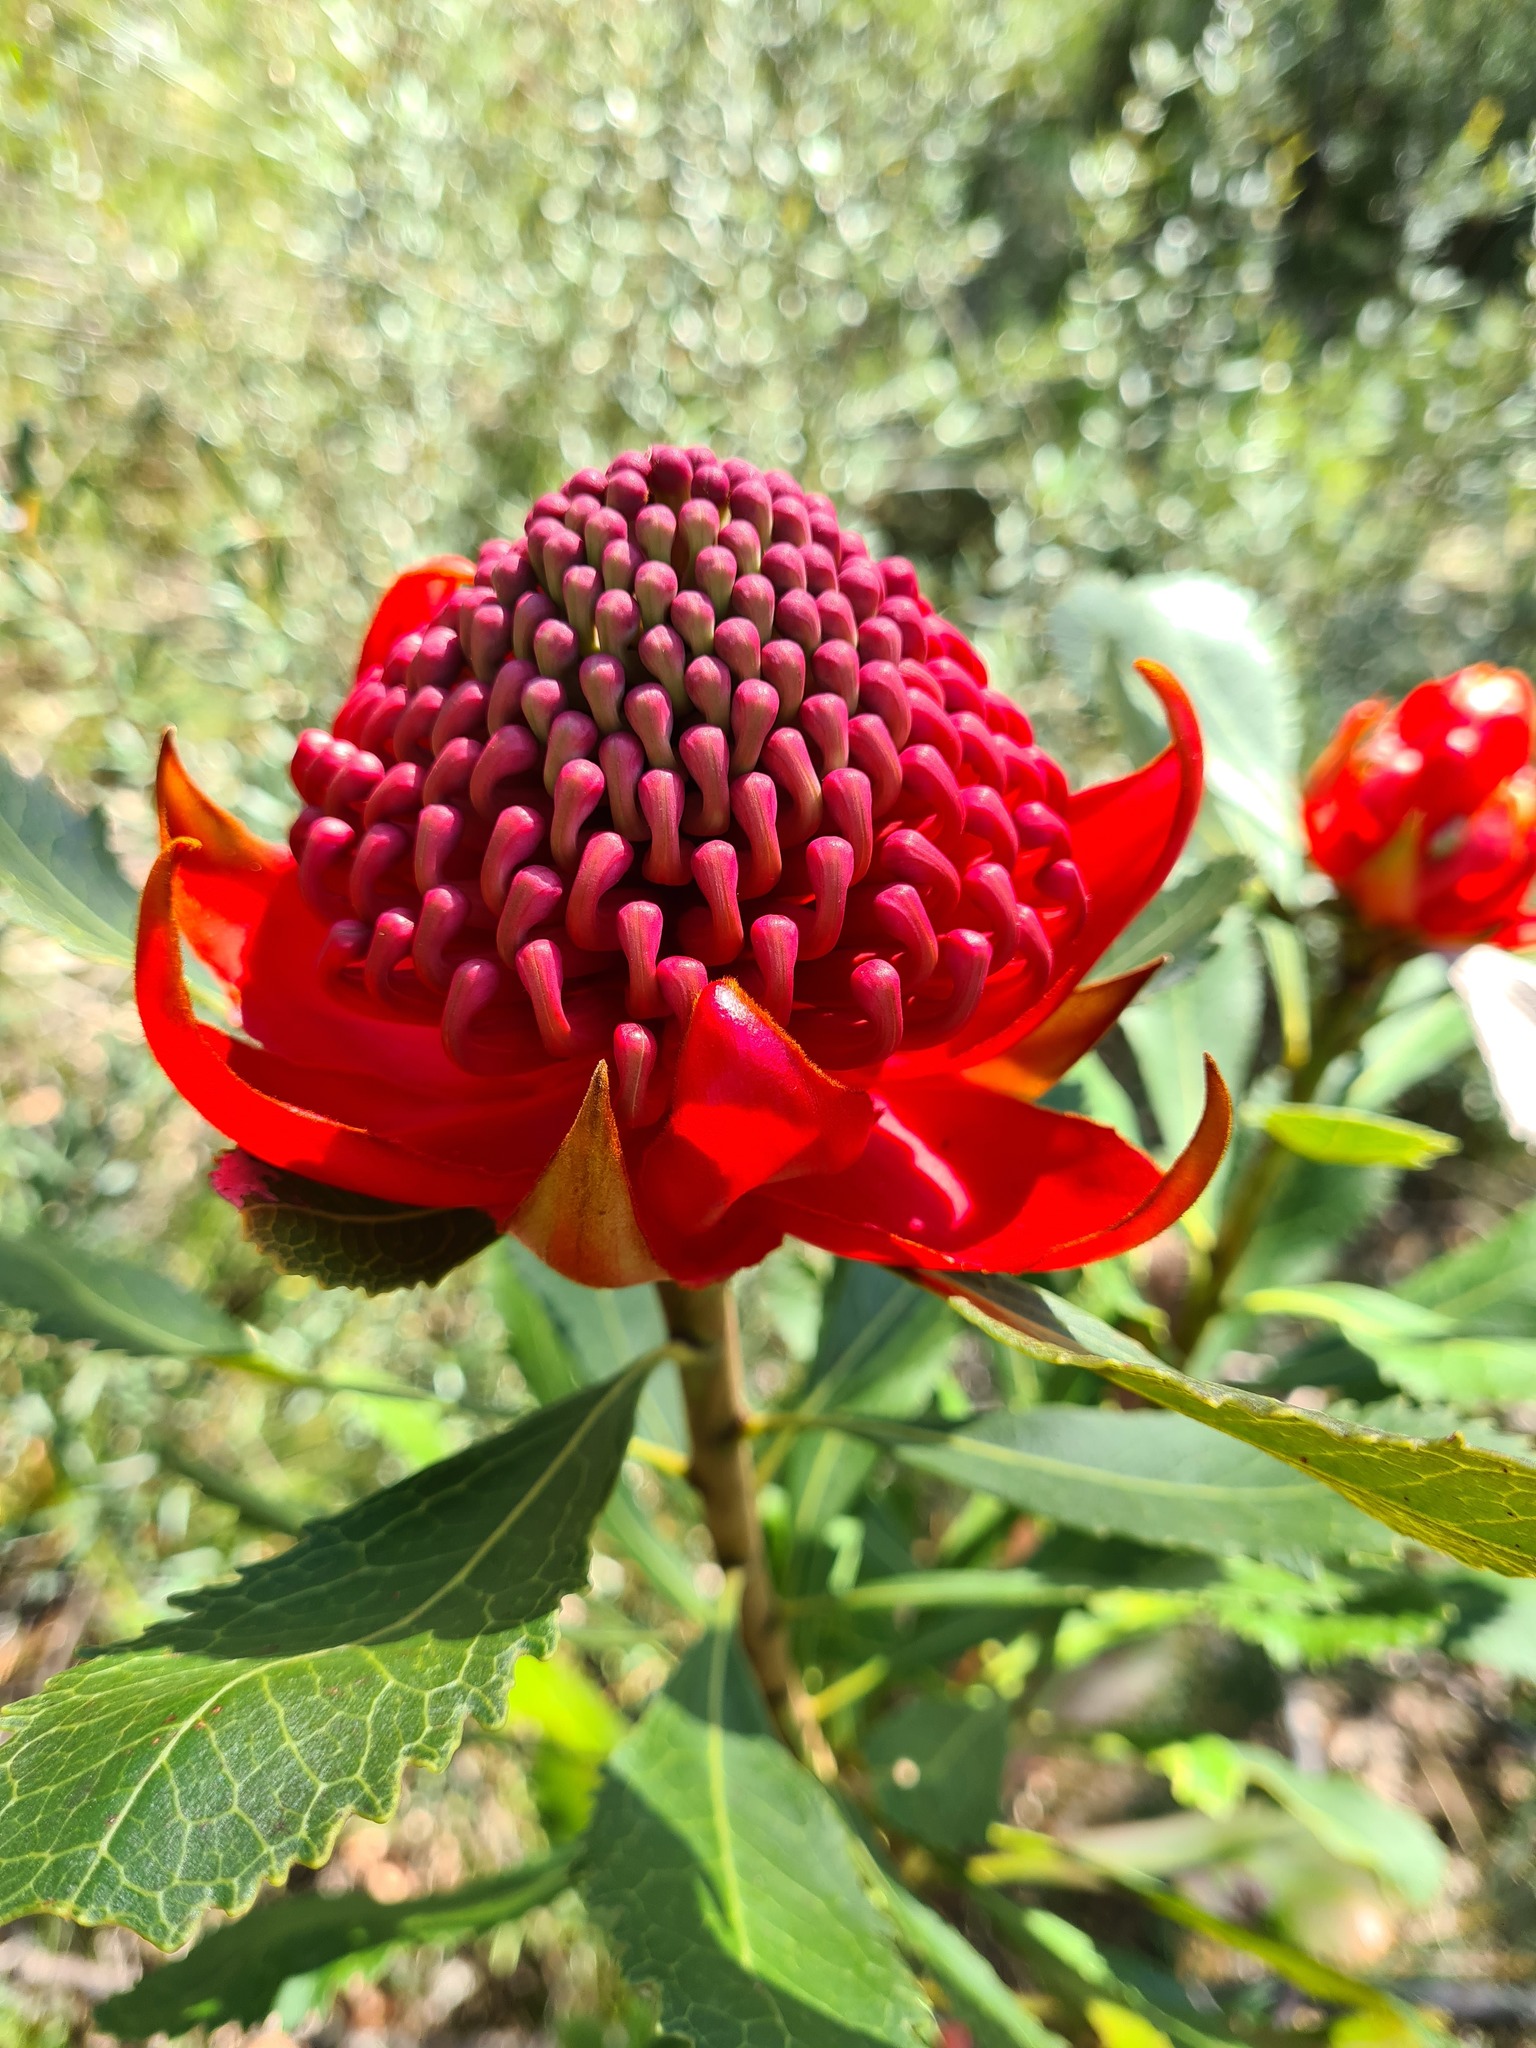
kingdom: Plantae
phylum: Tracheophyta
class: Magnoliopsida
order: Proteales
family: Proteaceae
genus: Telopea
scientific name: Telopea speciosissima
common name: New south wales waratah
